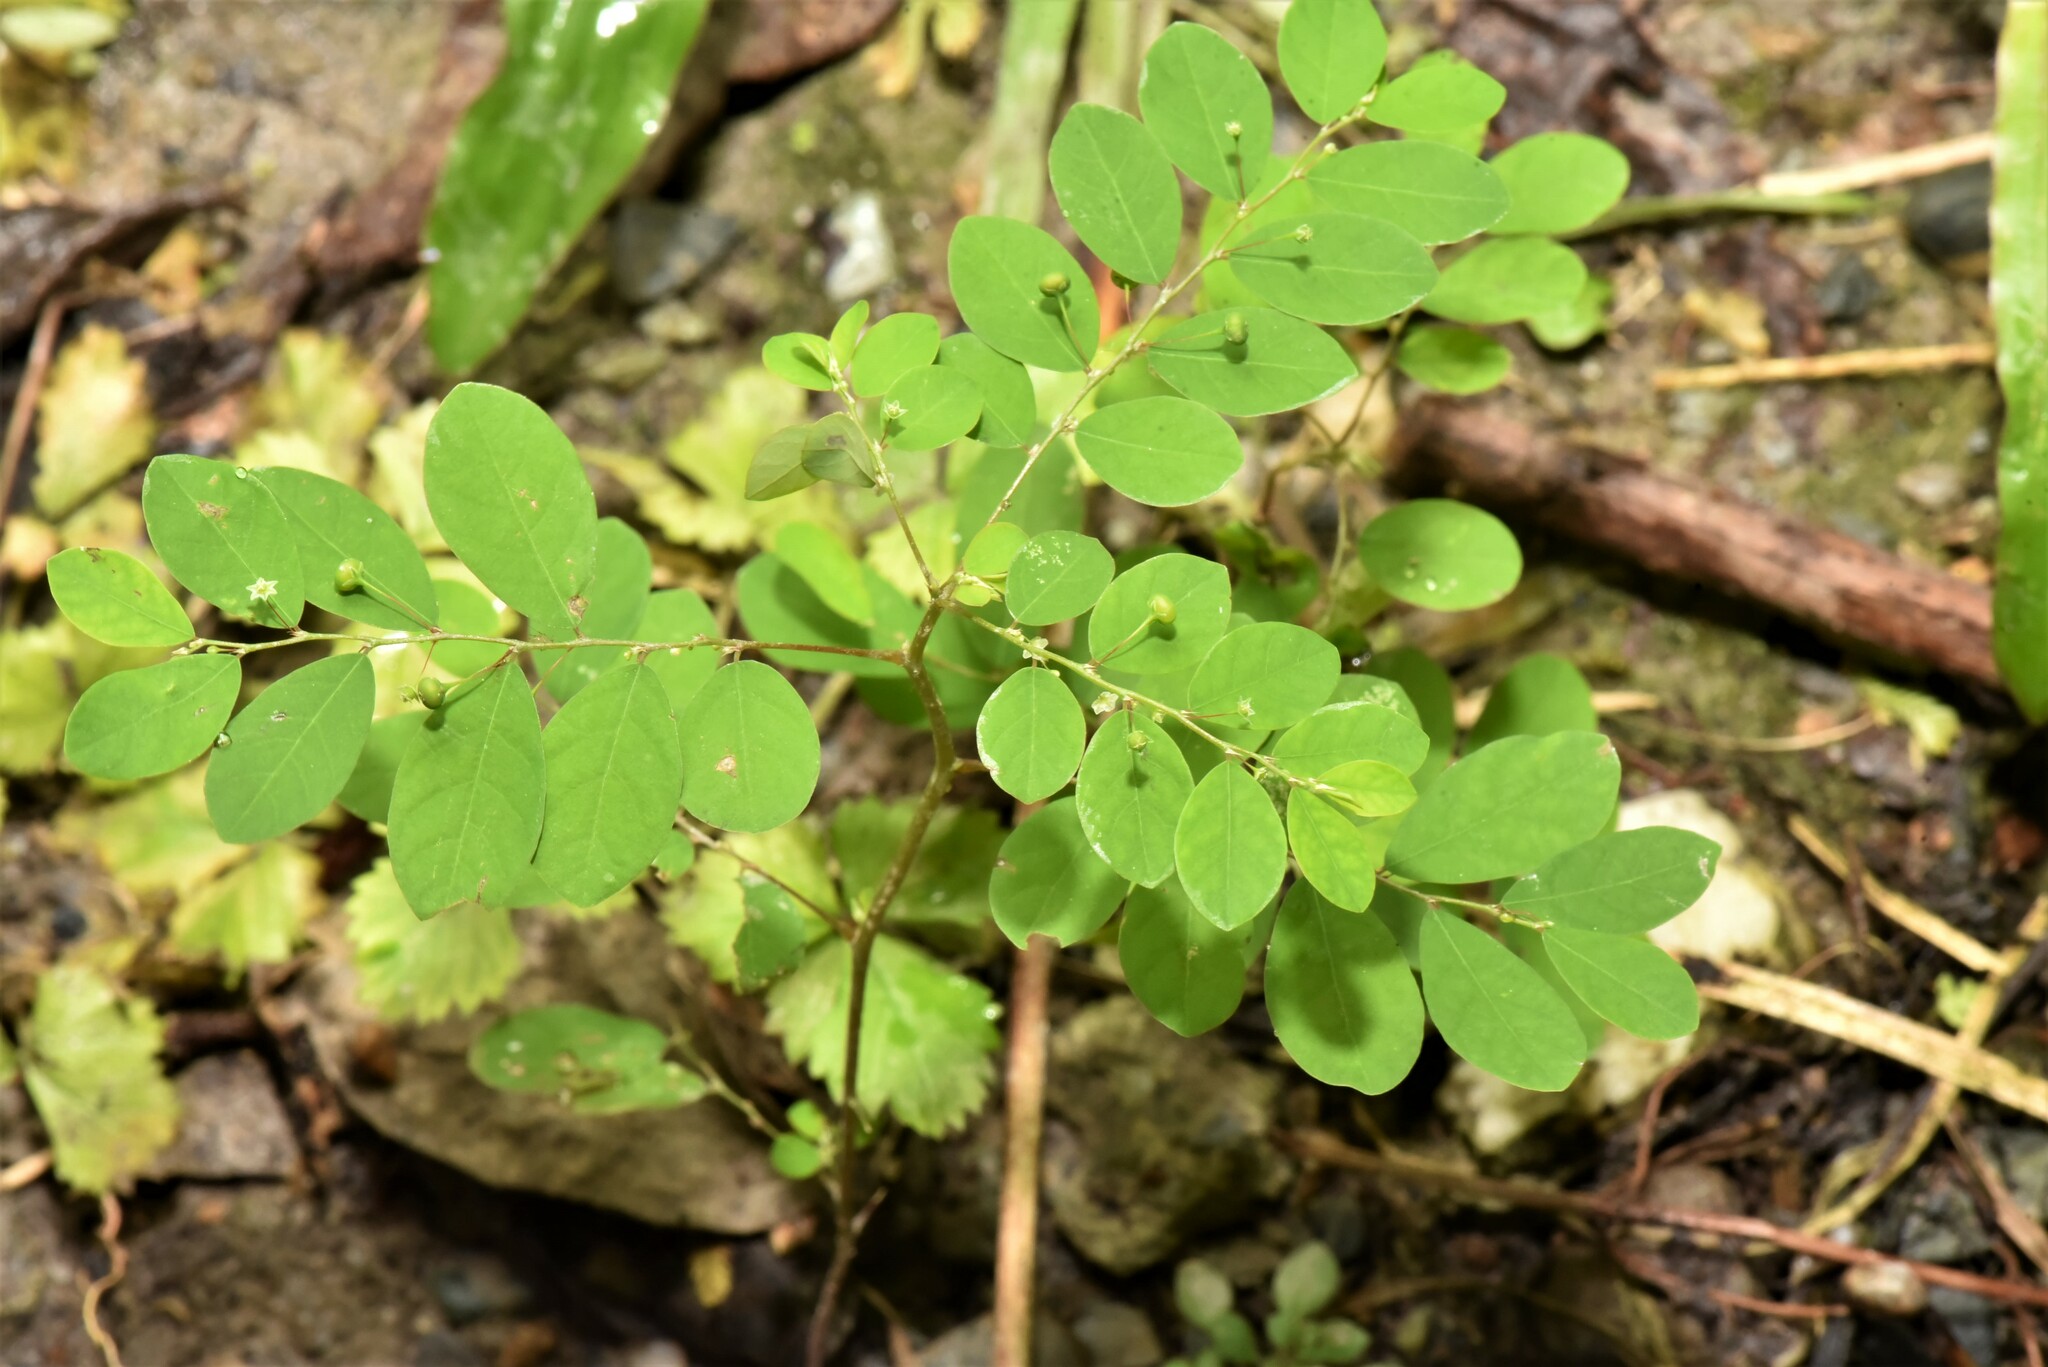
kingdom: Plantae
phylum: Tracheophyta
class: Magnoliopsida
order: Malpighiales
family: Phyllanthaceae
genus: Phyllanthus
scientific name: Phyllanthus tenellus
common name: Mascarene island leaf-flower
